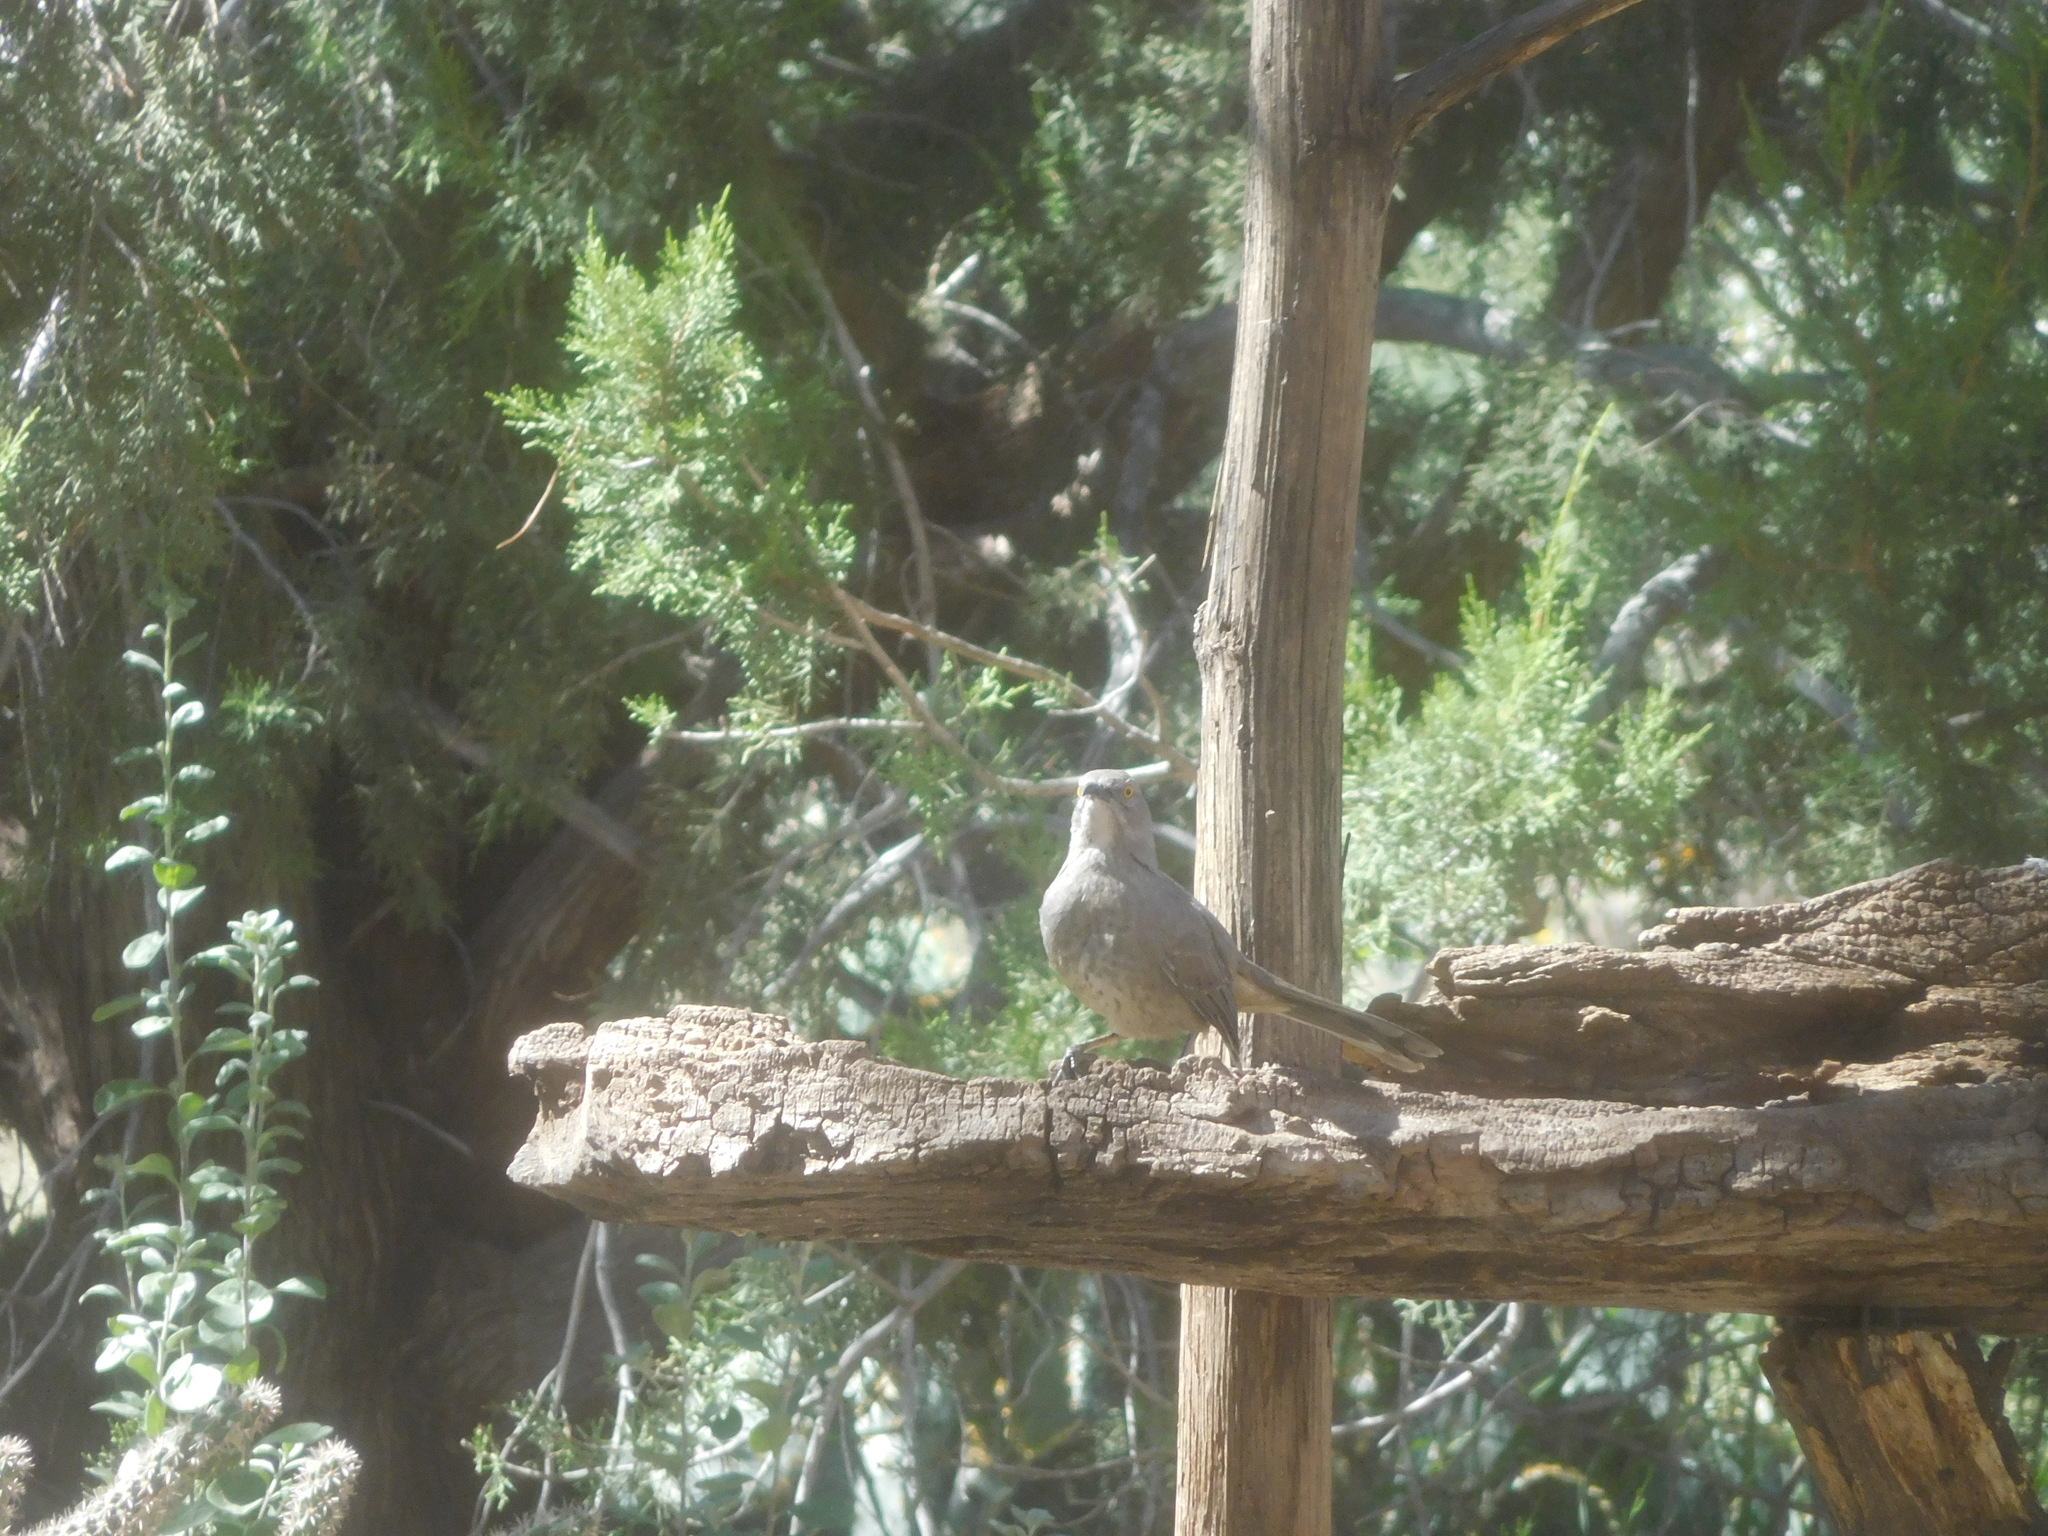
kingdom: Animalia
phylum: Chordata
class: Aves
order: Passeriformes
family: Mimidae
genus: Toxostoma
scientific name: Toxostoma curvirostre
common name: Curve-billed thrasher
